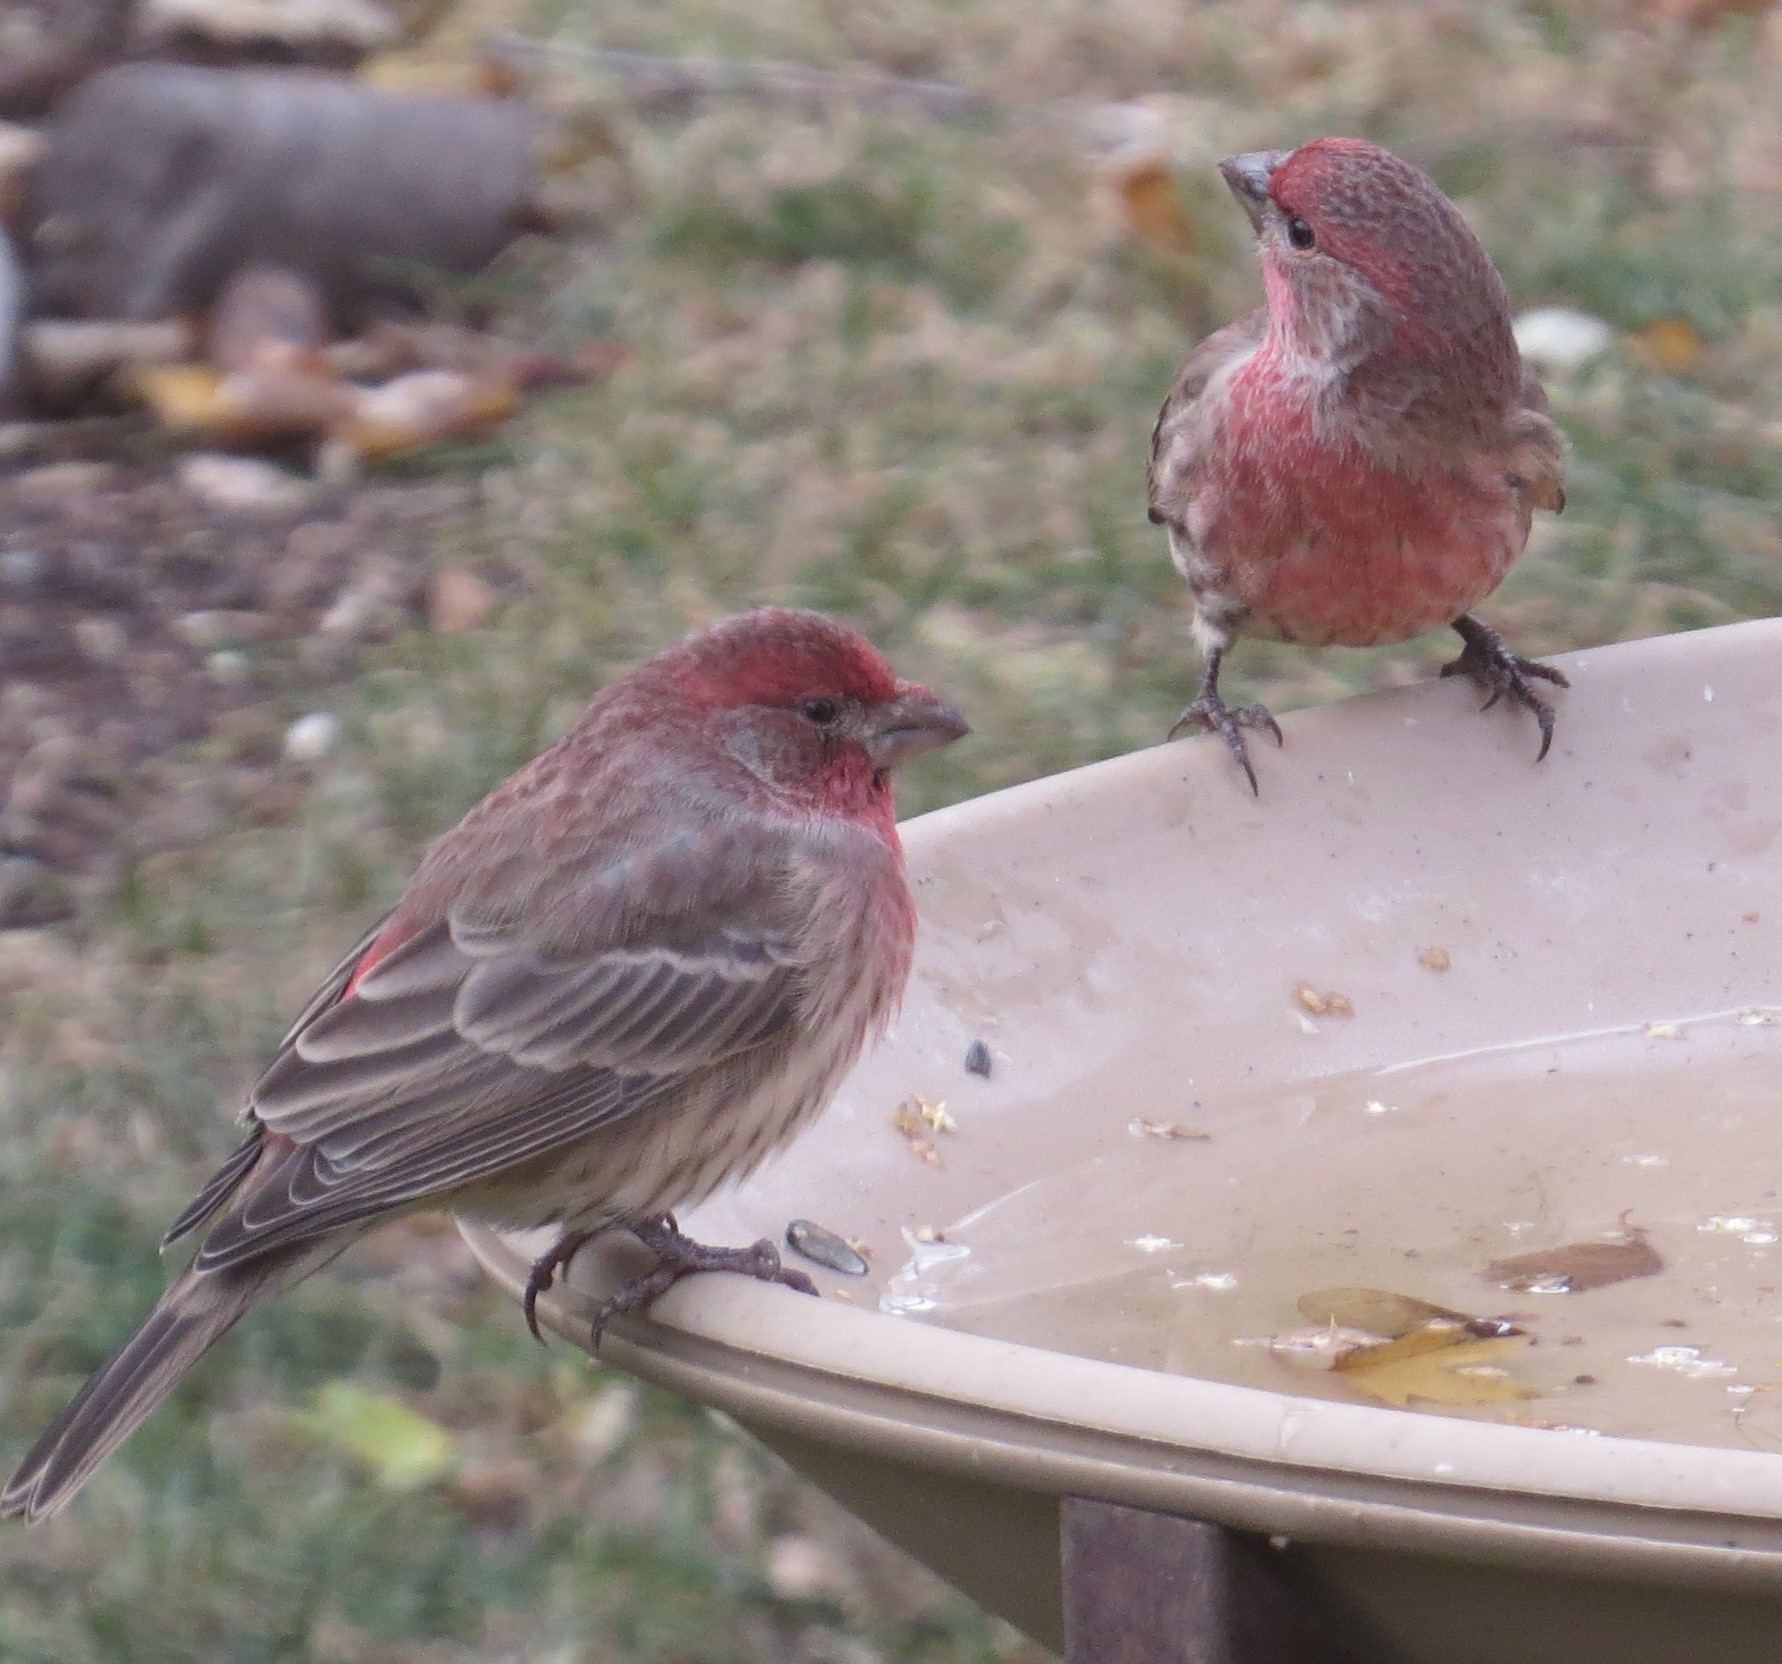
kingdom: Animalia
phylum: Chordata
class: Aves
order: Passeriformes
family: Fringillidae
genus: Haemorhous
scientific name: Haemorhous mexicanus
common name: House finch
